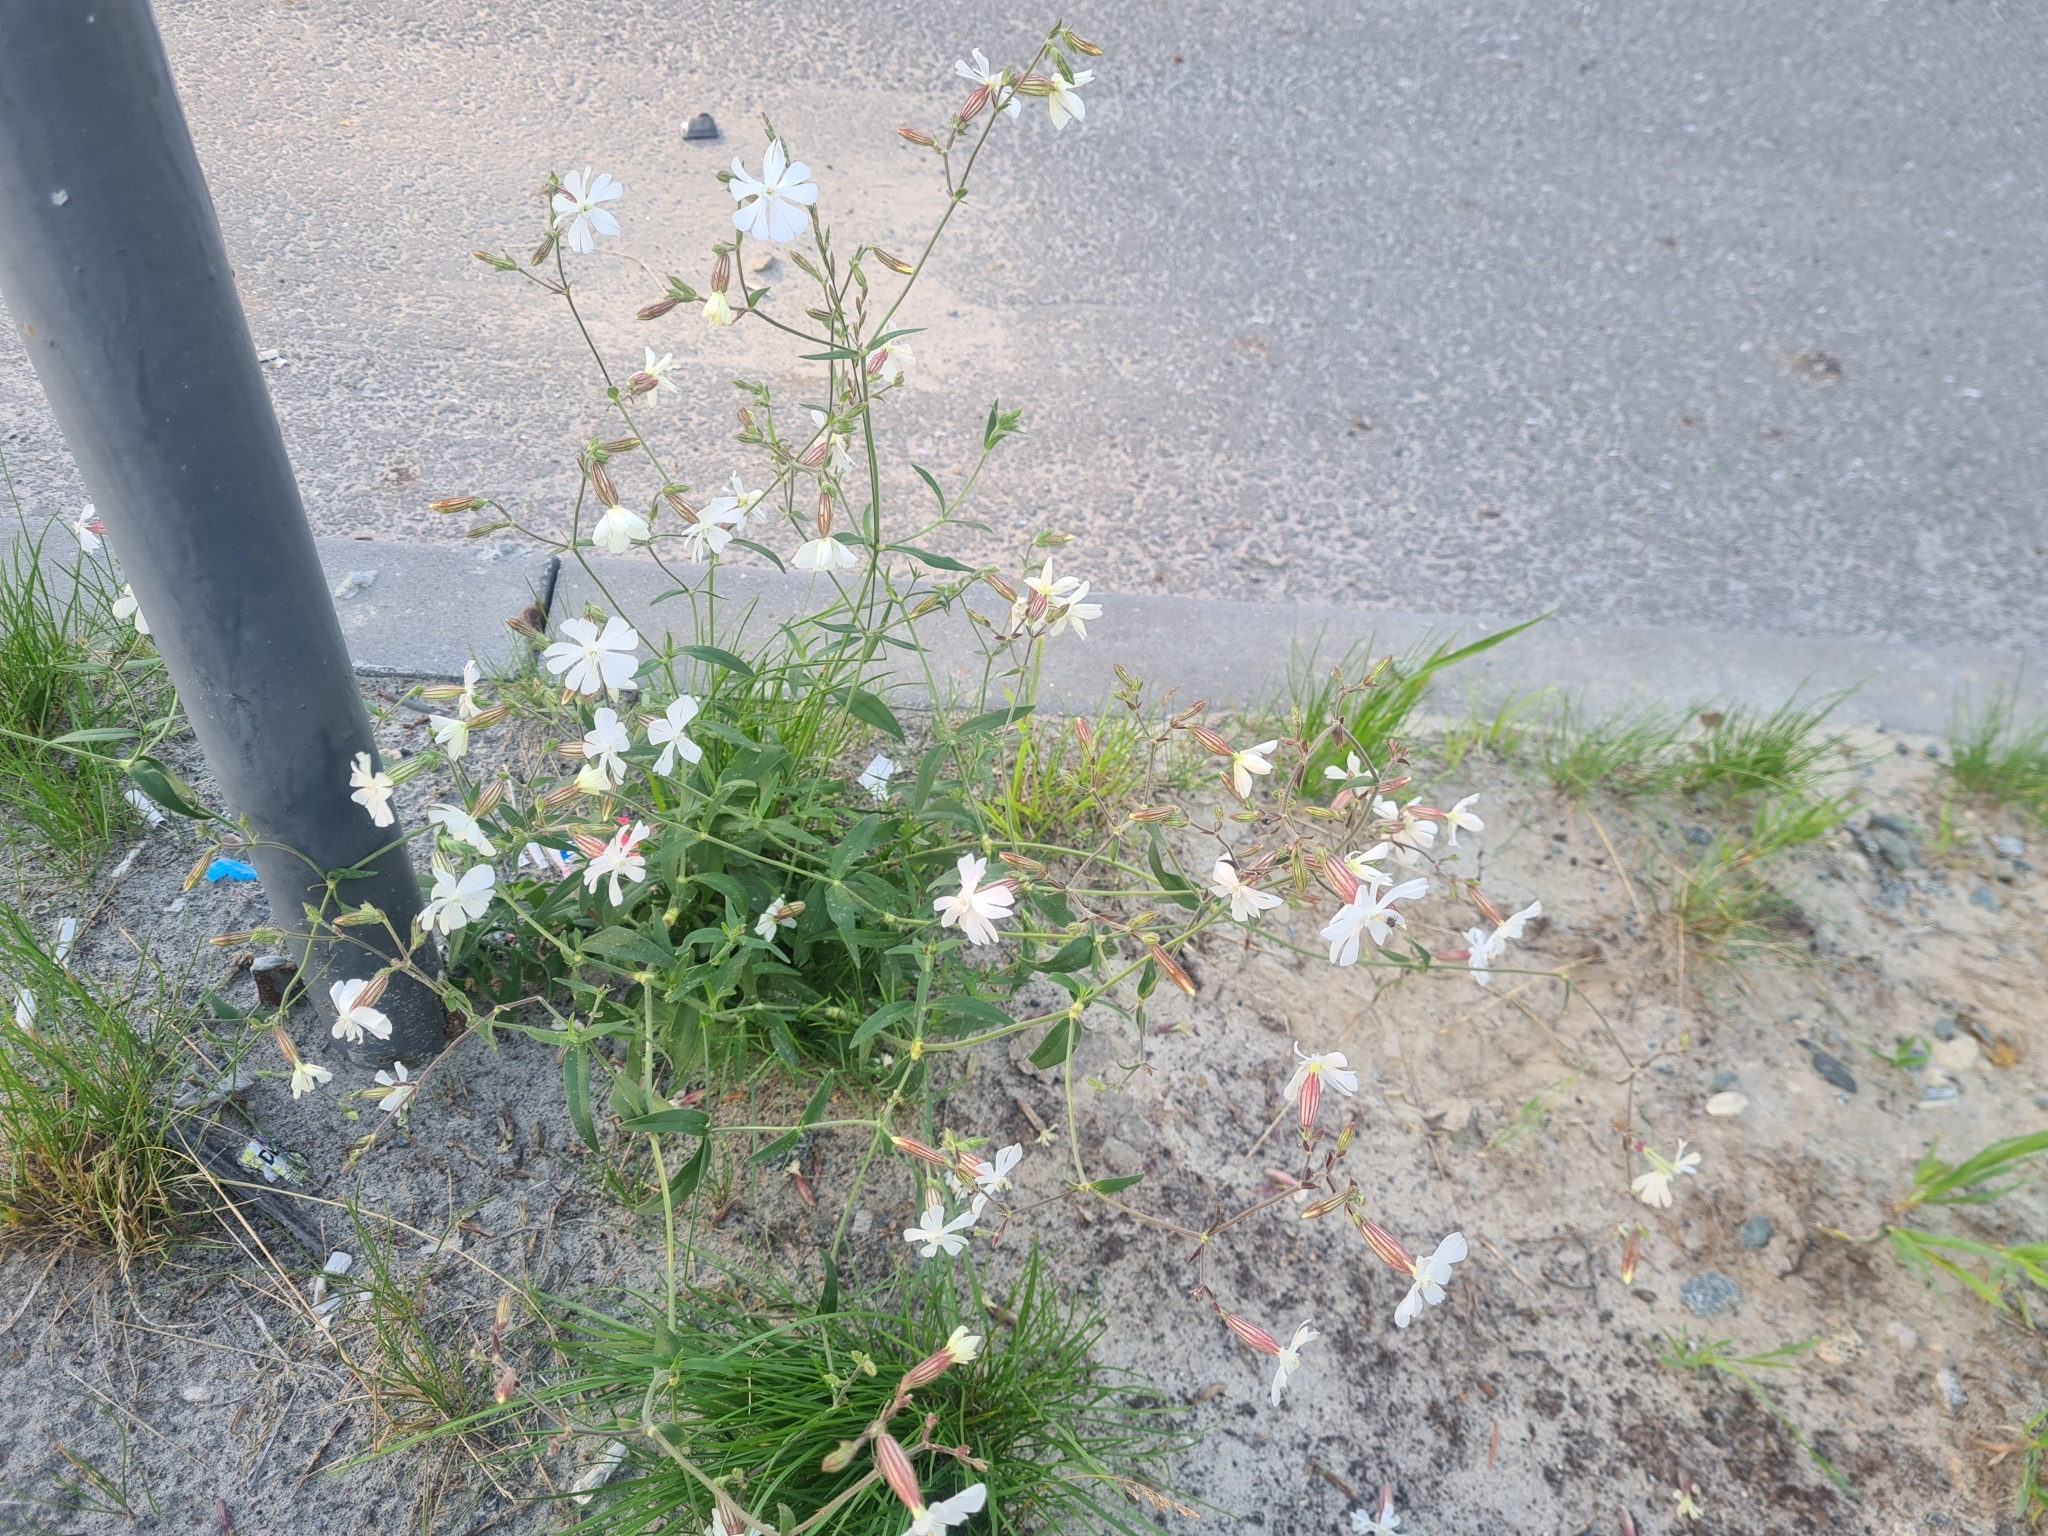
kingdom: Plantae
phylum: Tracheophyta
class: Magnoliopsida
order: Caryophyllales
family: Caryophyllaceae
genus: Silene
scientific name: Silene latifolia
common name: White campion
